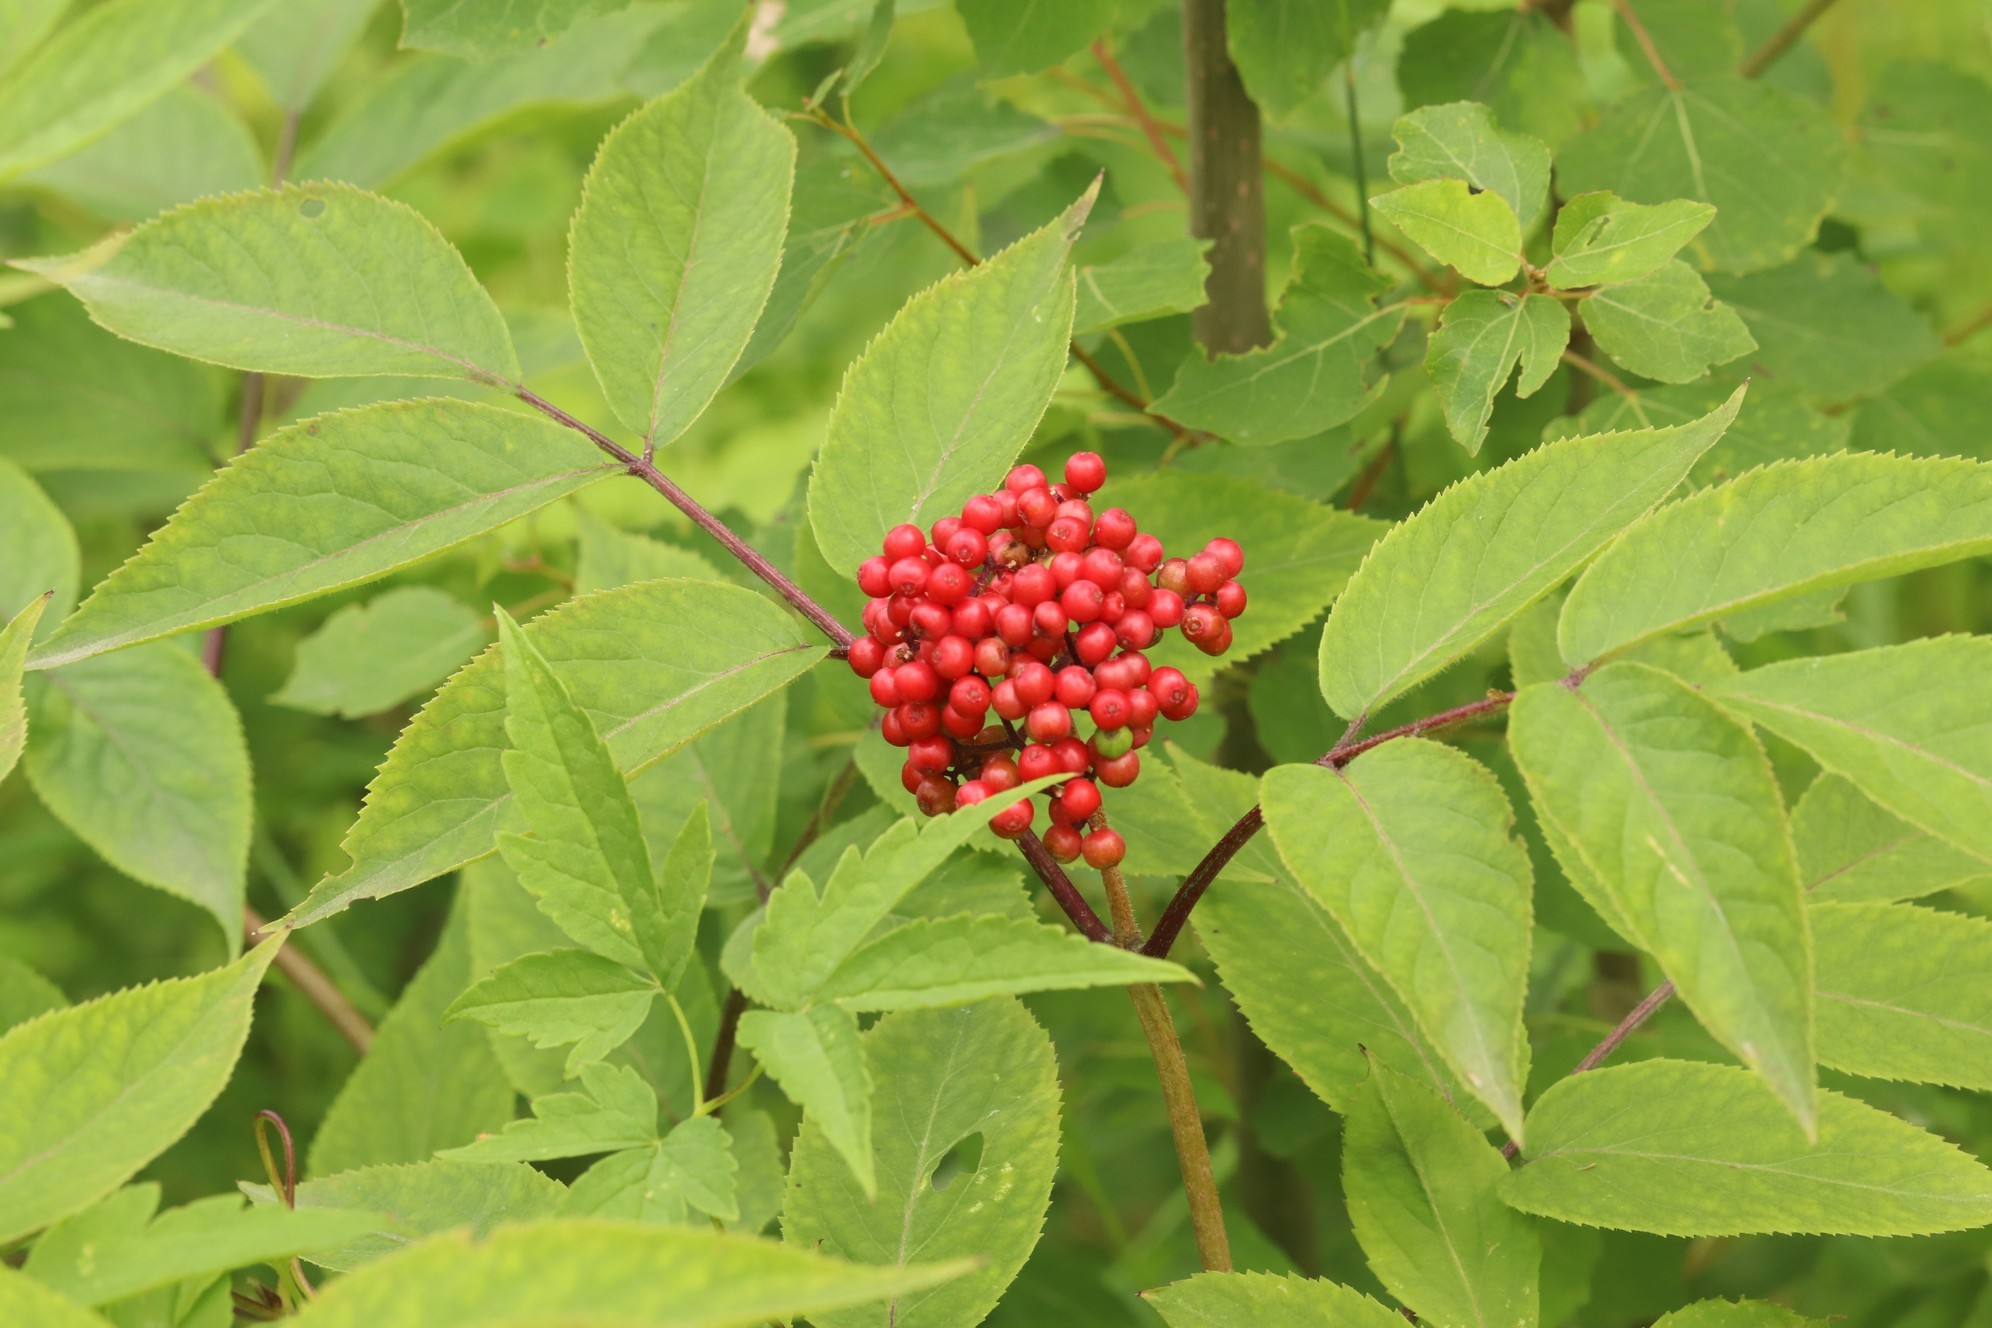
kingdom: Plantae
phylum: Tracheophyta
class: Magnoliopsida
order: Dipsacales
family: Viburnaceae
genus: Sambucus
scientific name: Sambucus sibirica
